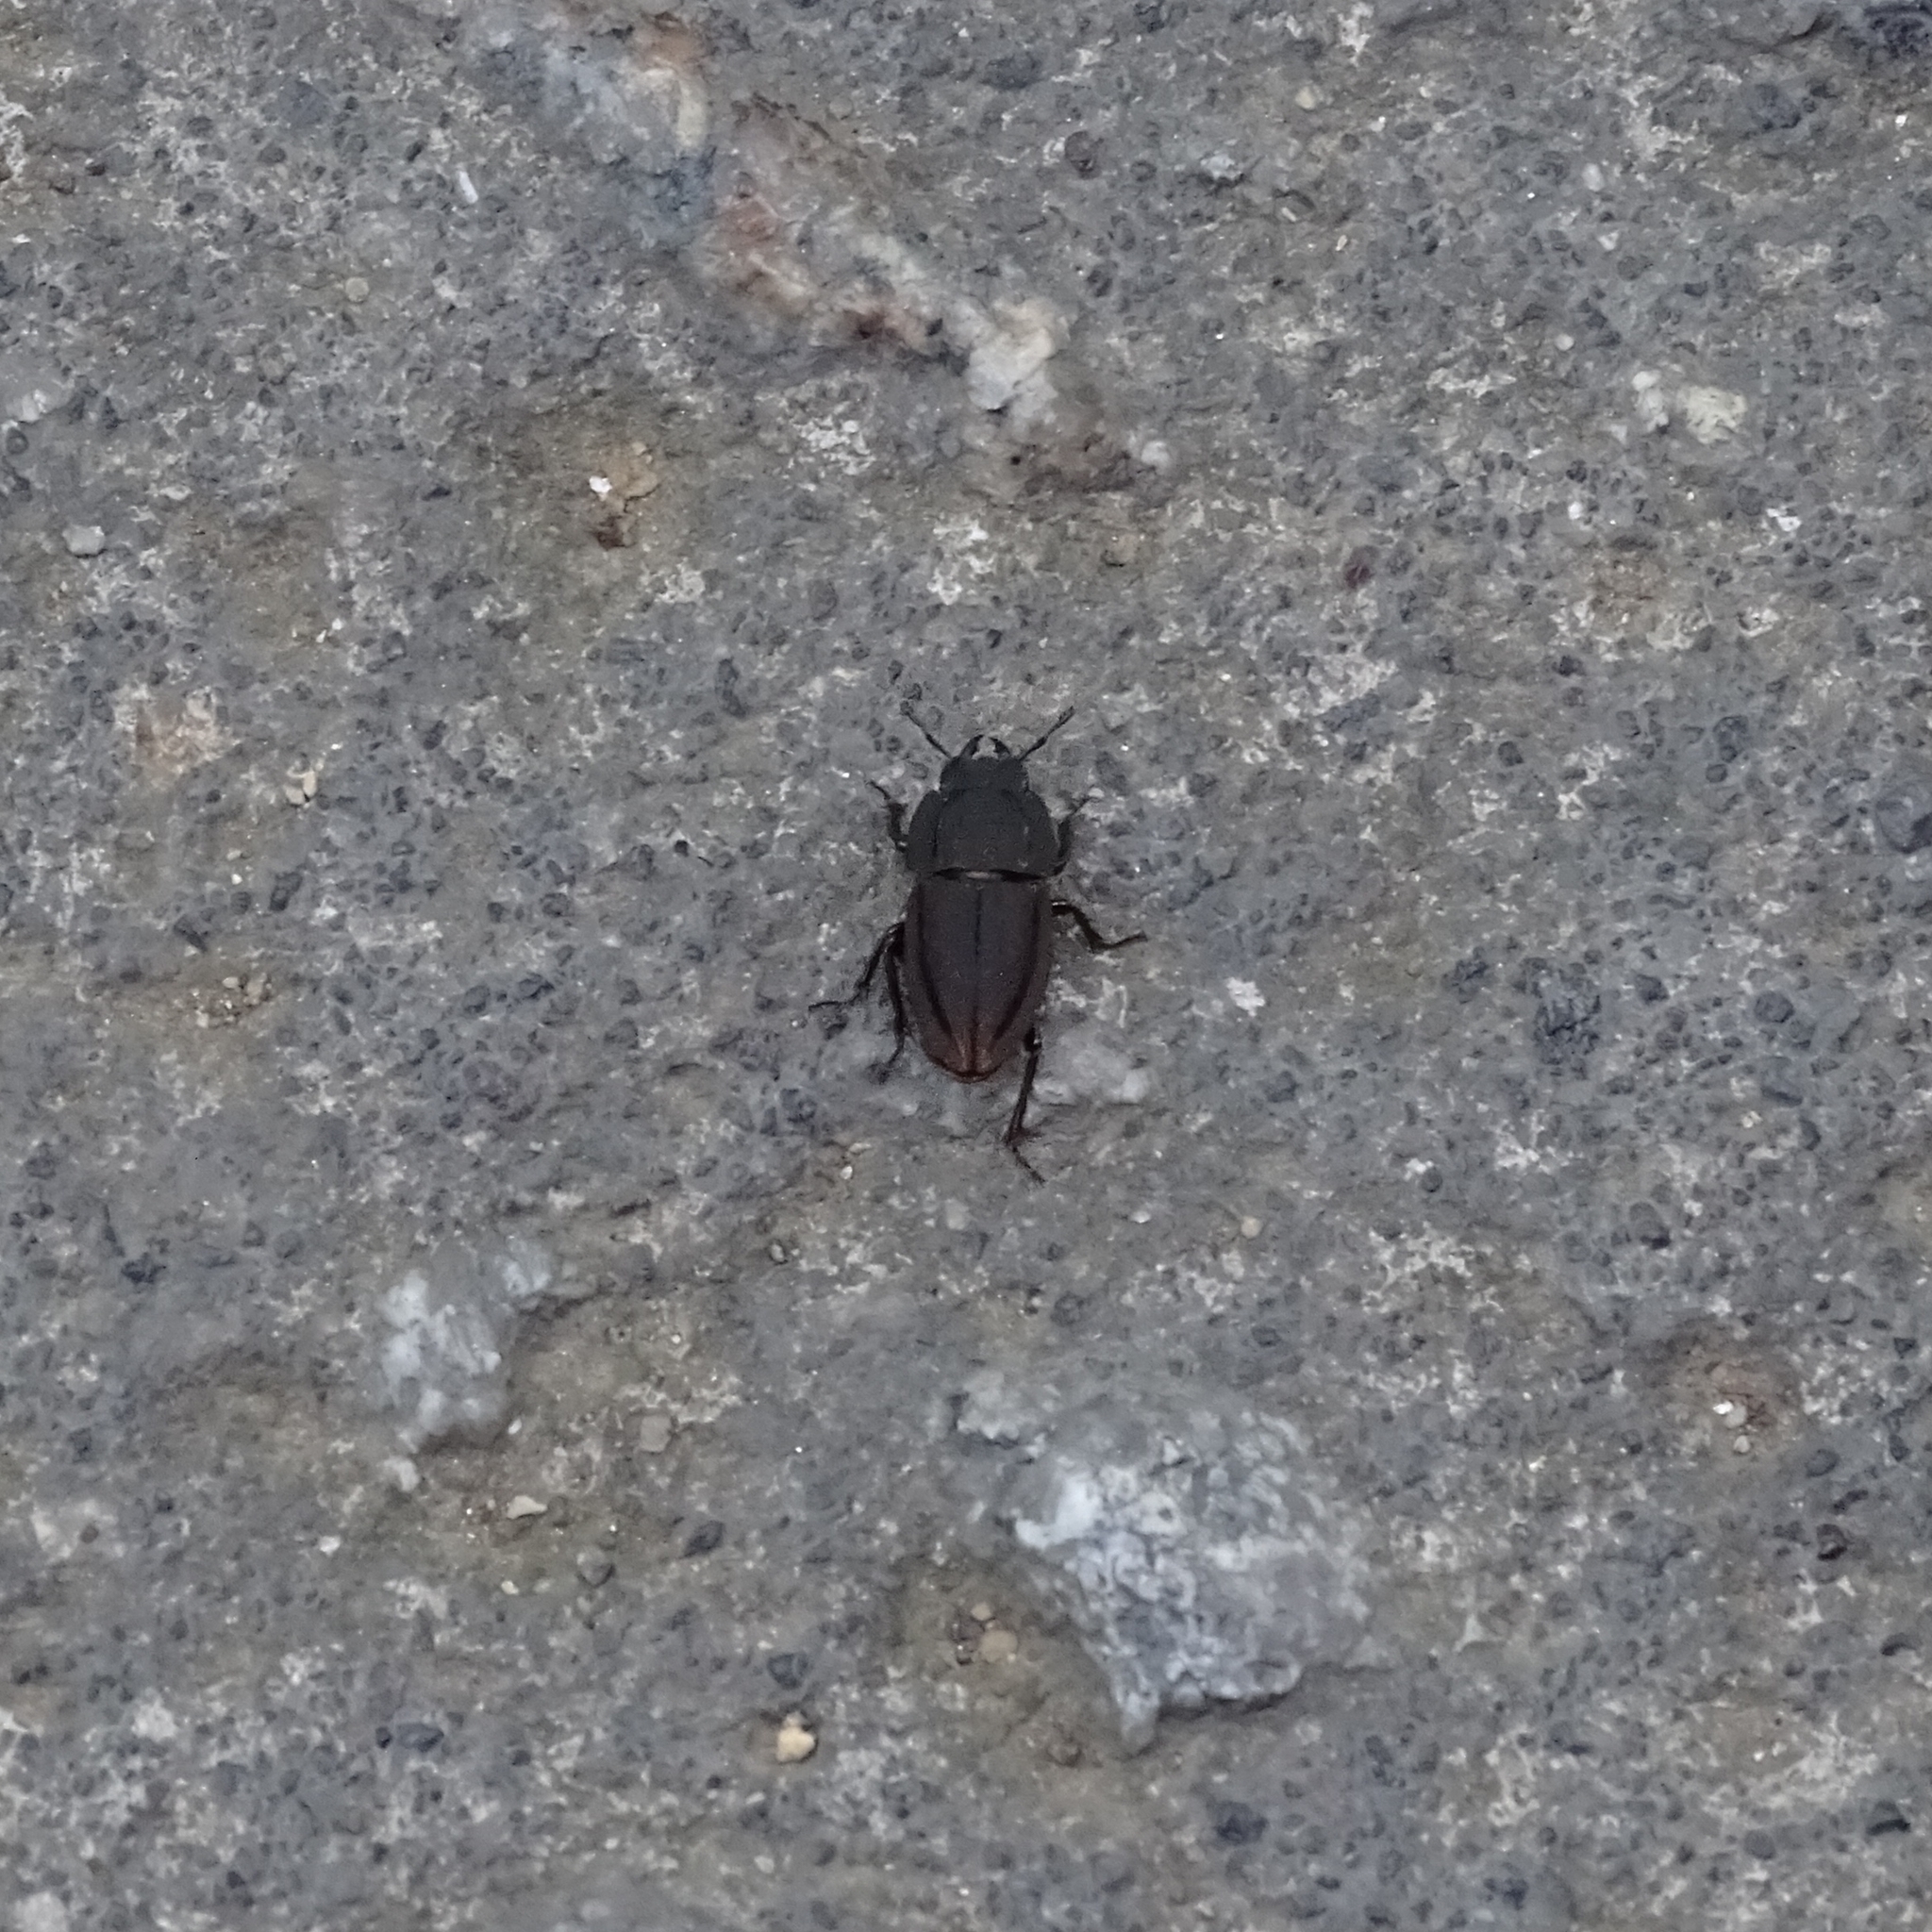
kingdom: Animalia
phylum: Arthropoda
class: Insecta
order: Coleoptera
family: Lucanidae
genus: Erichius
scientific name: Erichius vittatus
